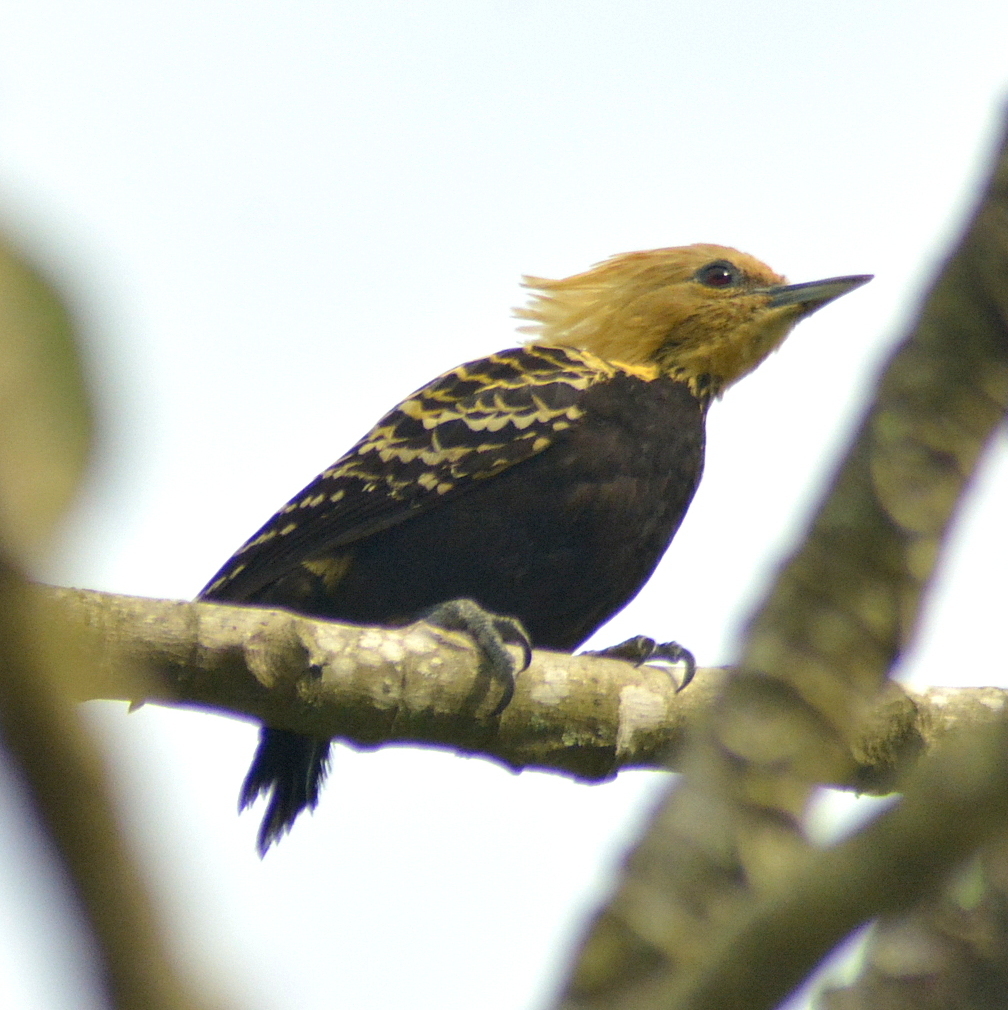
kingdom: Animalia
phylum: Chordata
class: Aves
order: Piciformes
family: Picidae
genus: Celeus
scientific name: Celeus flavescens
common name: Blond-crested woodpecker
